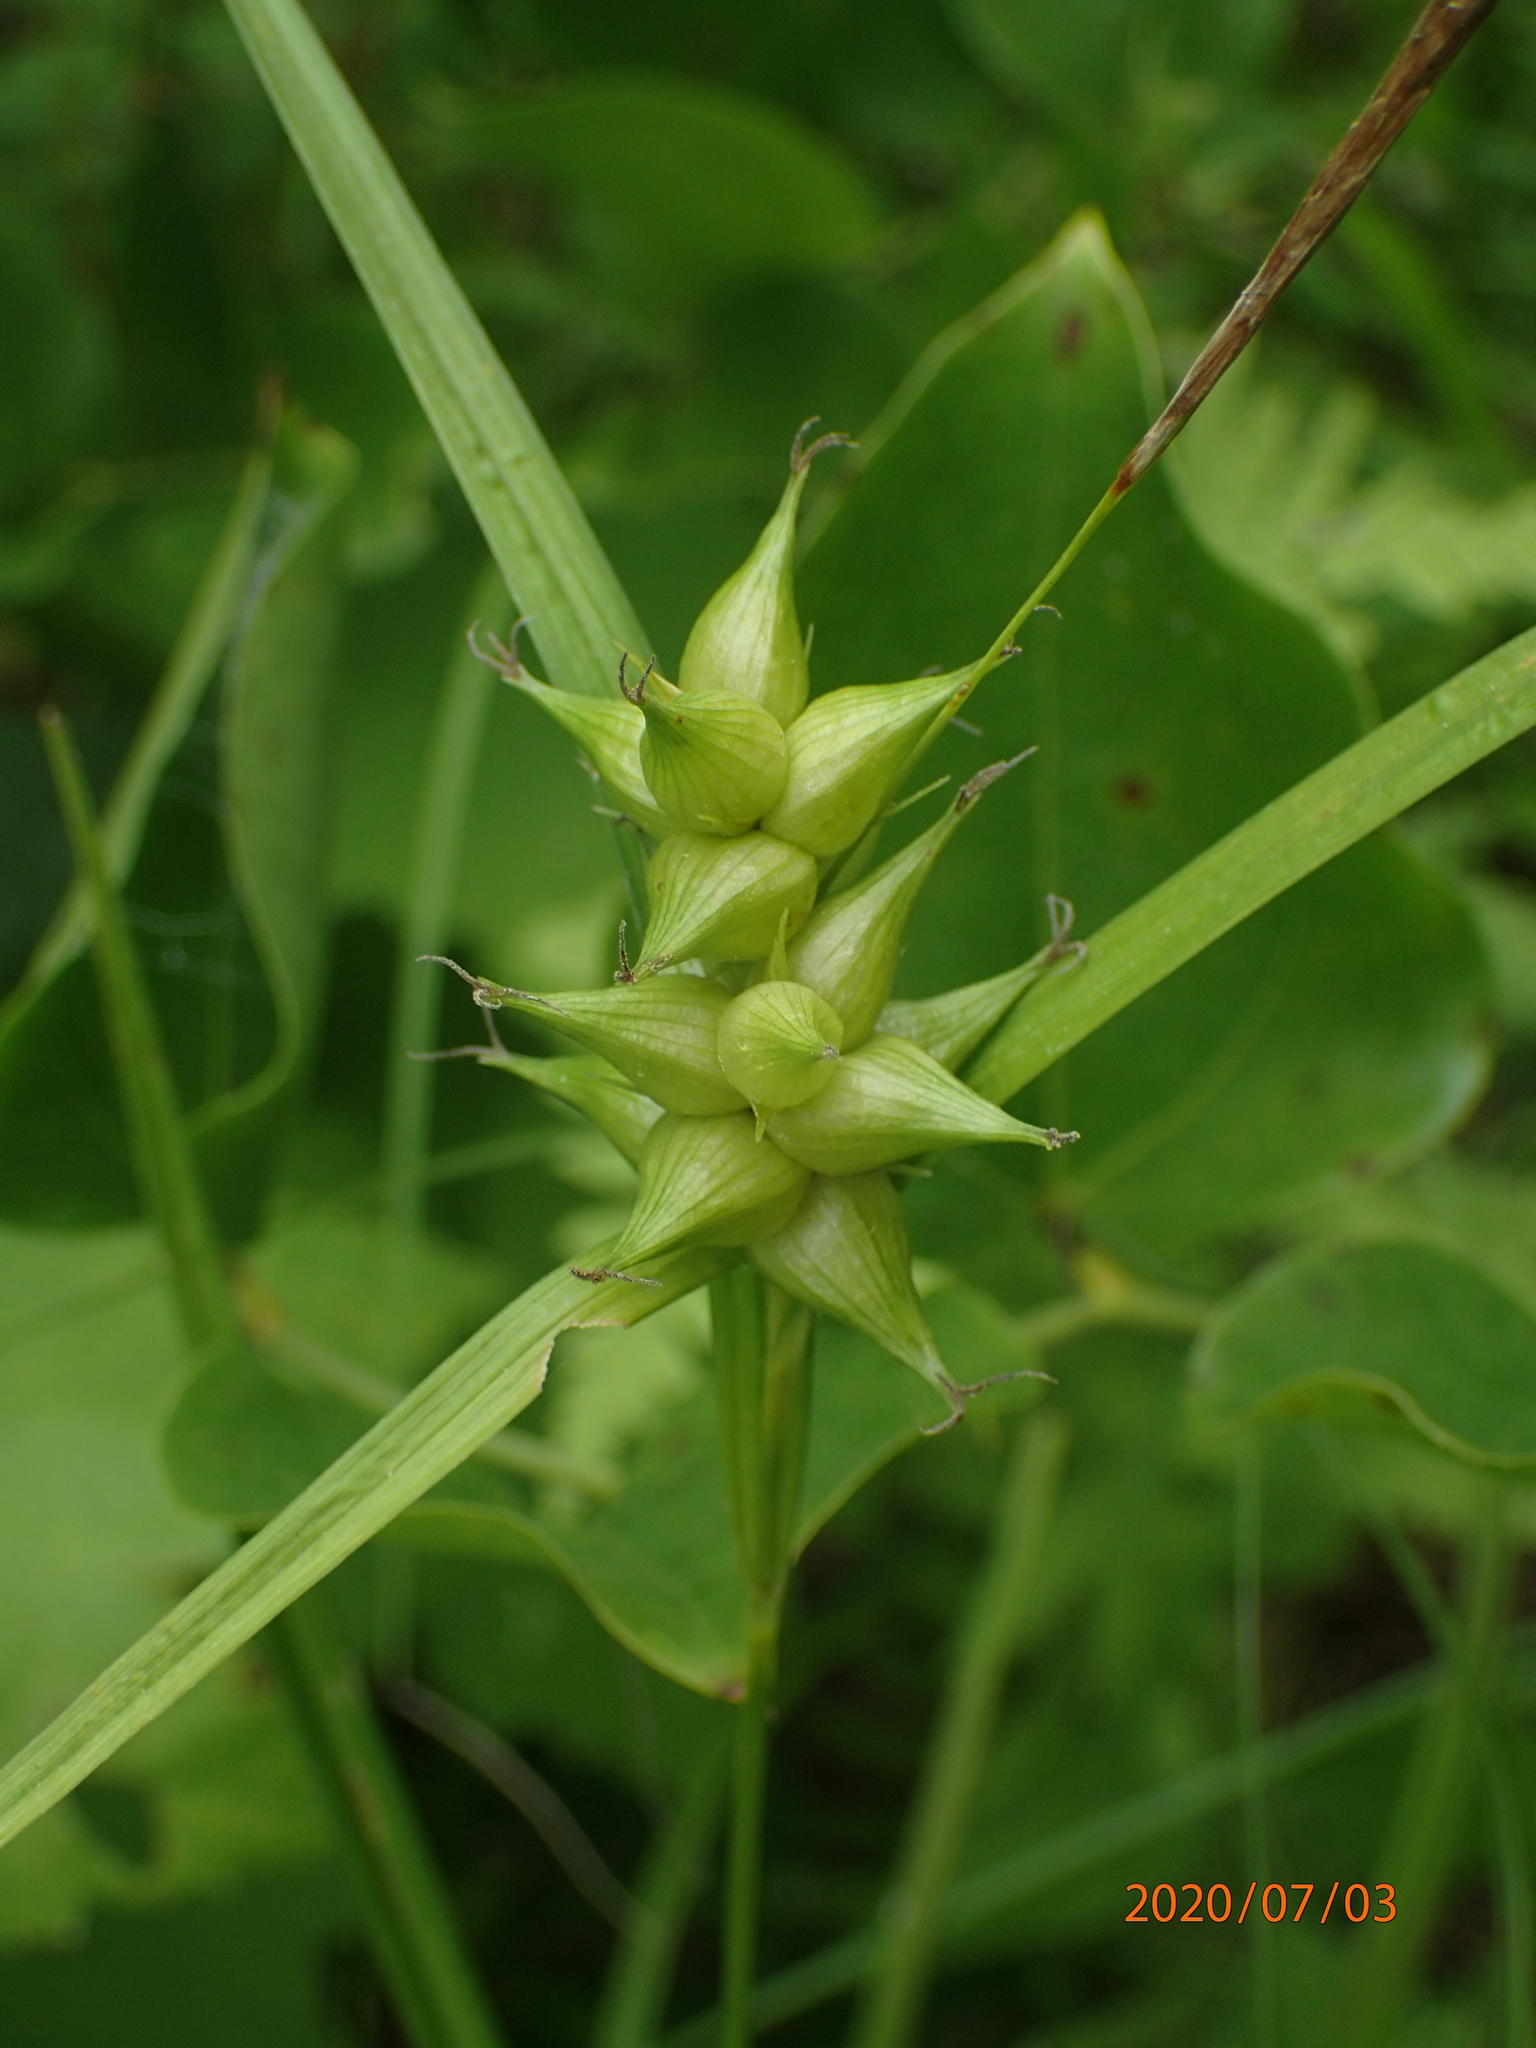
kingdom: Plantae
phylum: Tracheophyta
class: Liliopsida
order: Poales
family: Cyperaceae
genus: Carex
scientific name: Carex intumescens
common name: Greater bladder sedge
